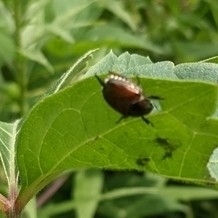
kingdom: Animalia
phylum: Arthropoda
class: Insecta
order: Coleoptera
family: Scarabaeidae
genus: Popillia
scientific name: Popillia japonica
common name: Japanese beetle
